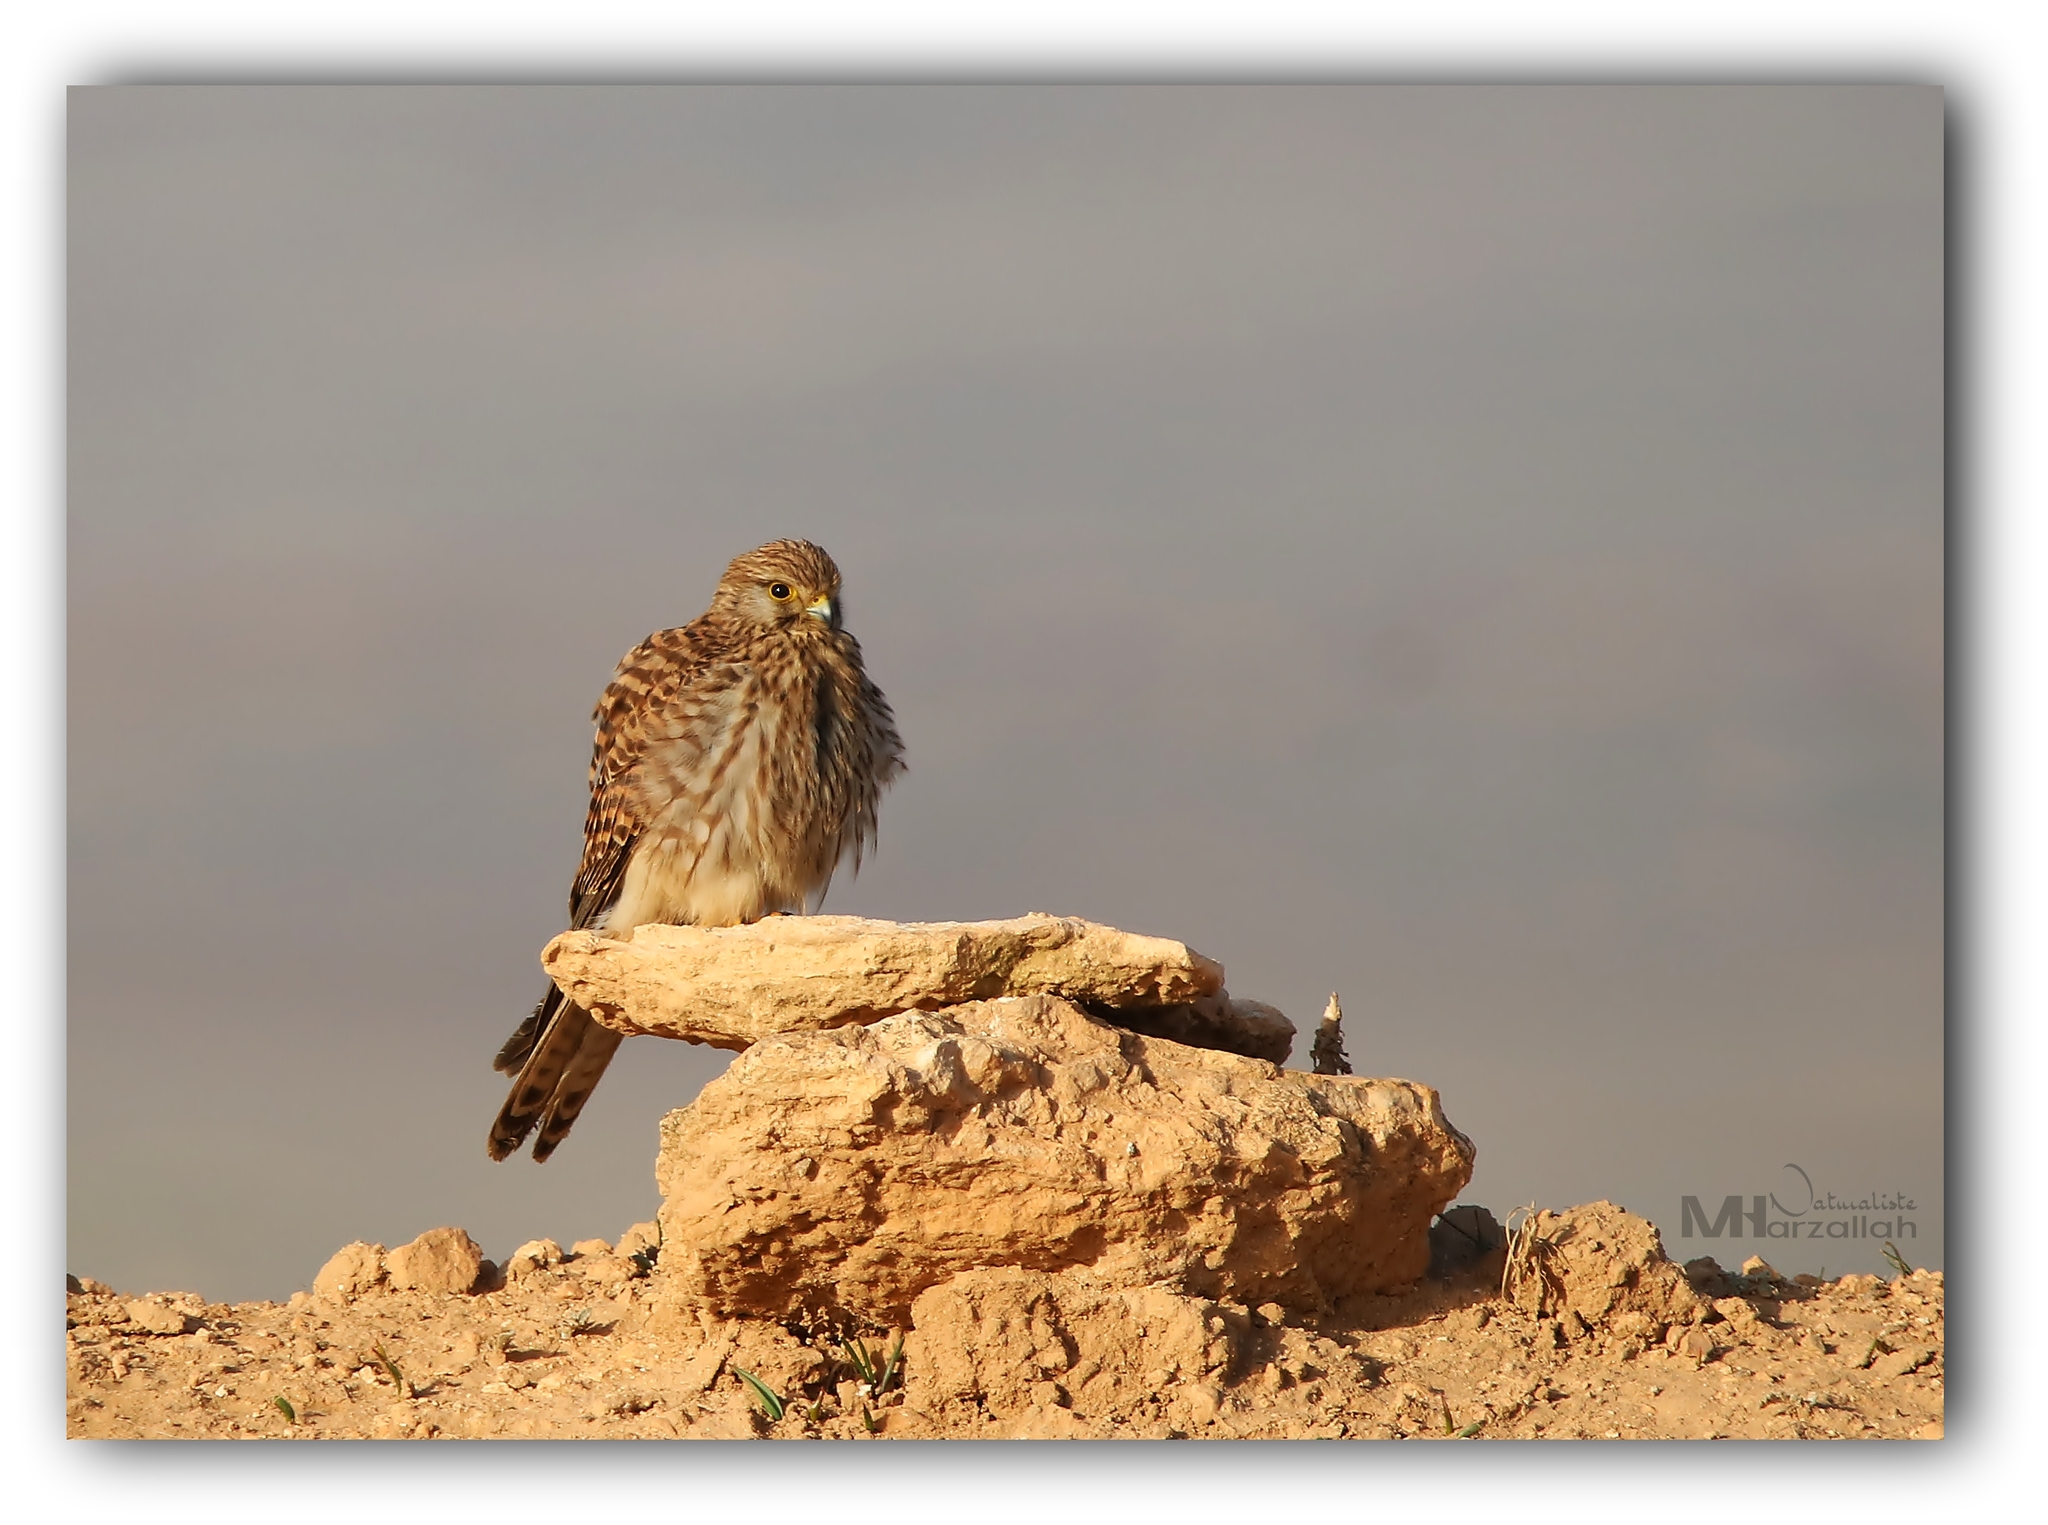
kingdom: Animalia
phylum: Chordata
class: Aves
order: Falconiformes
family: Falconidae
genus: Falco
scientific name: Falco tinnunculus
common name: Common kestrel
